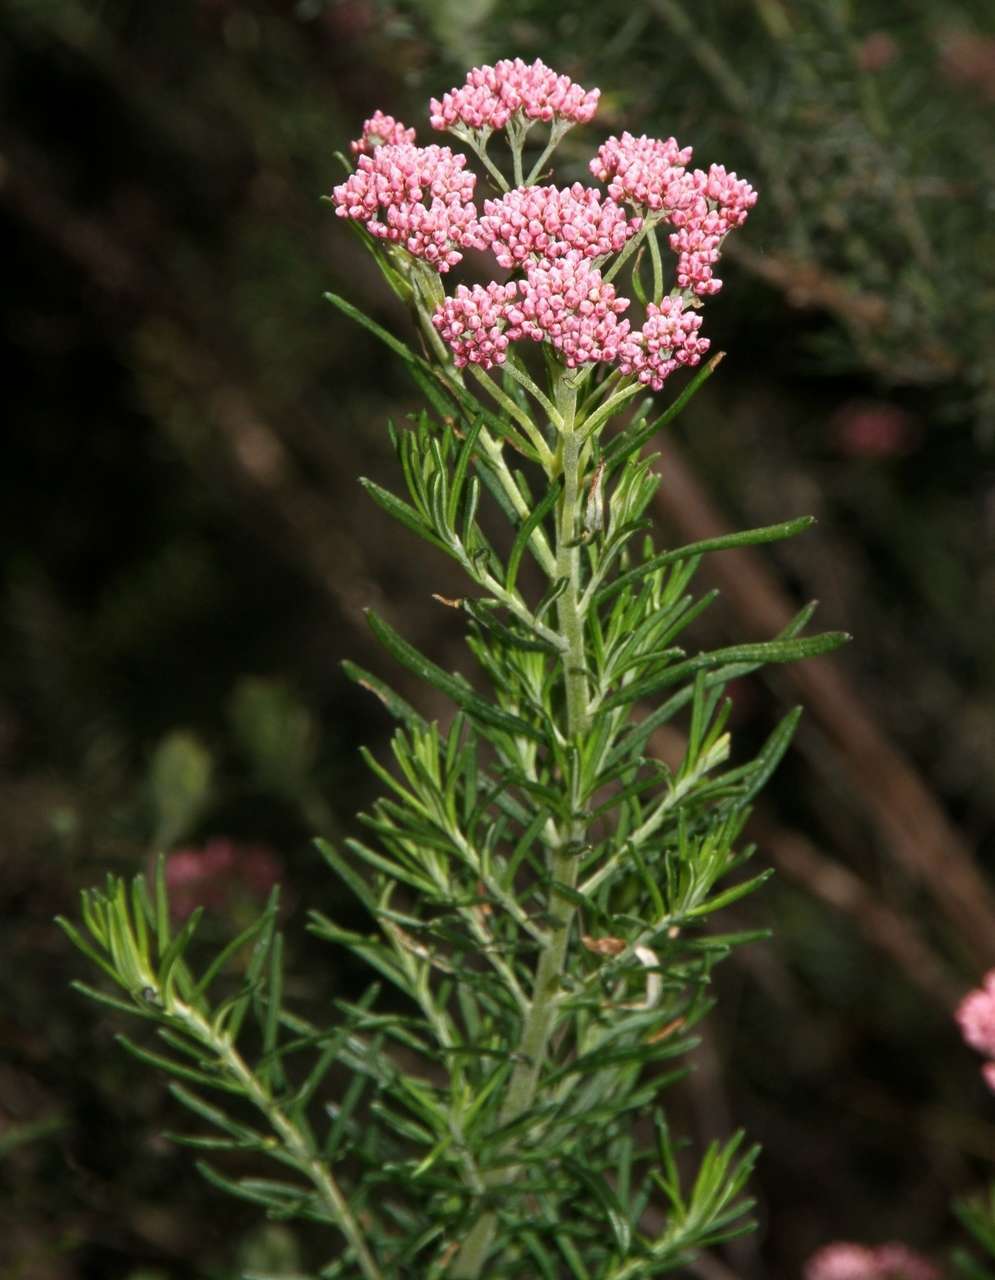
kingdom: Plantae
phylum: Tracheophyta
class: Magnoliopsida
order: Asterales
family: Asteraceae
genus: Cassinia
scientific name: Cassinia longifolia
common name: Longleaf-dogwood
